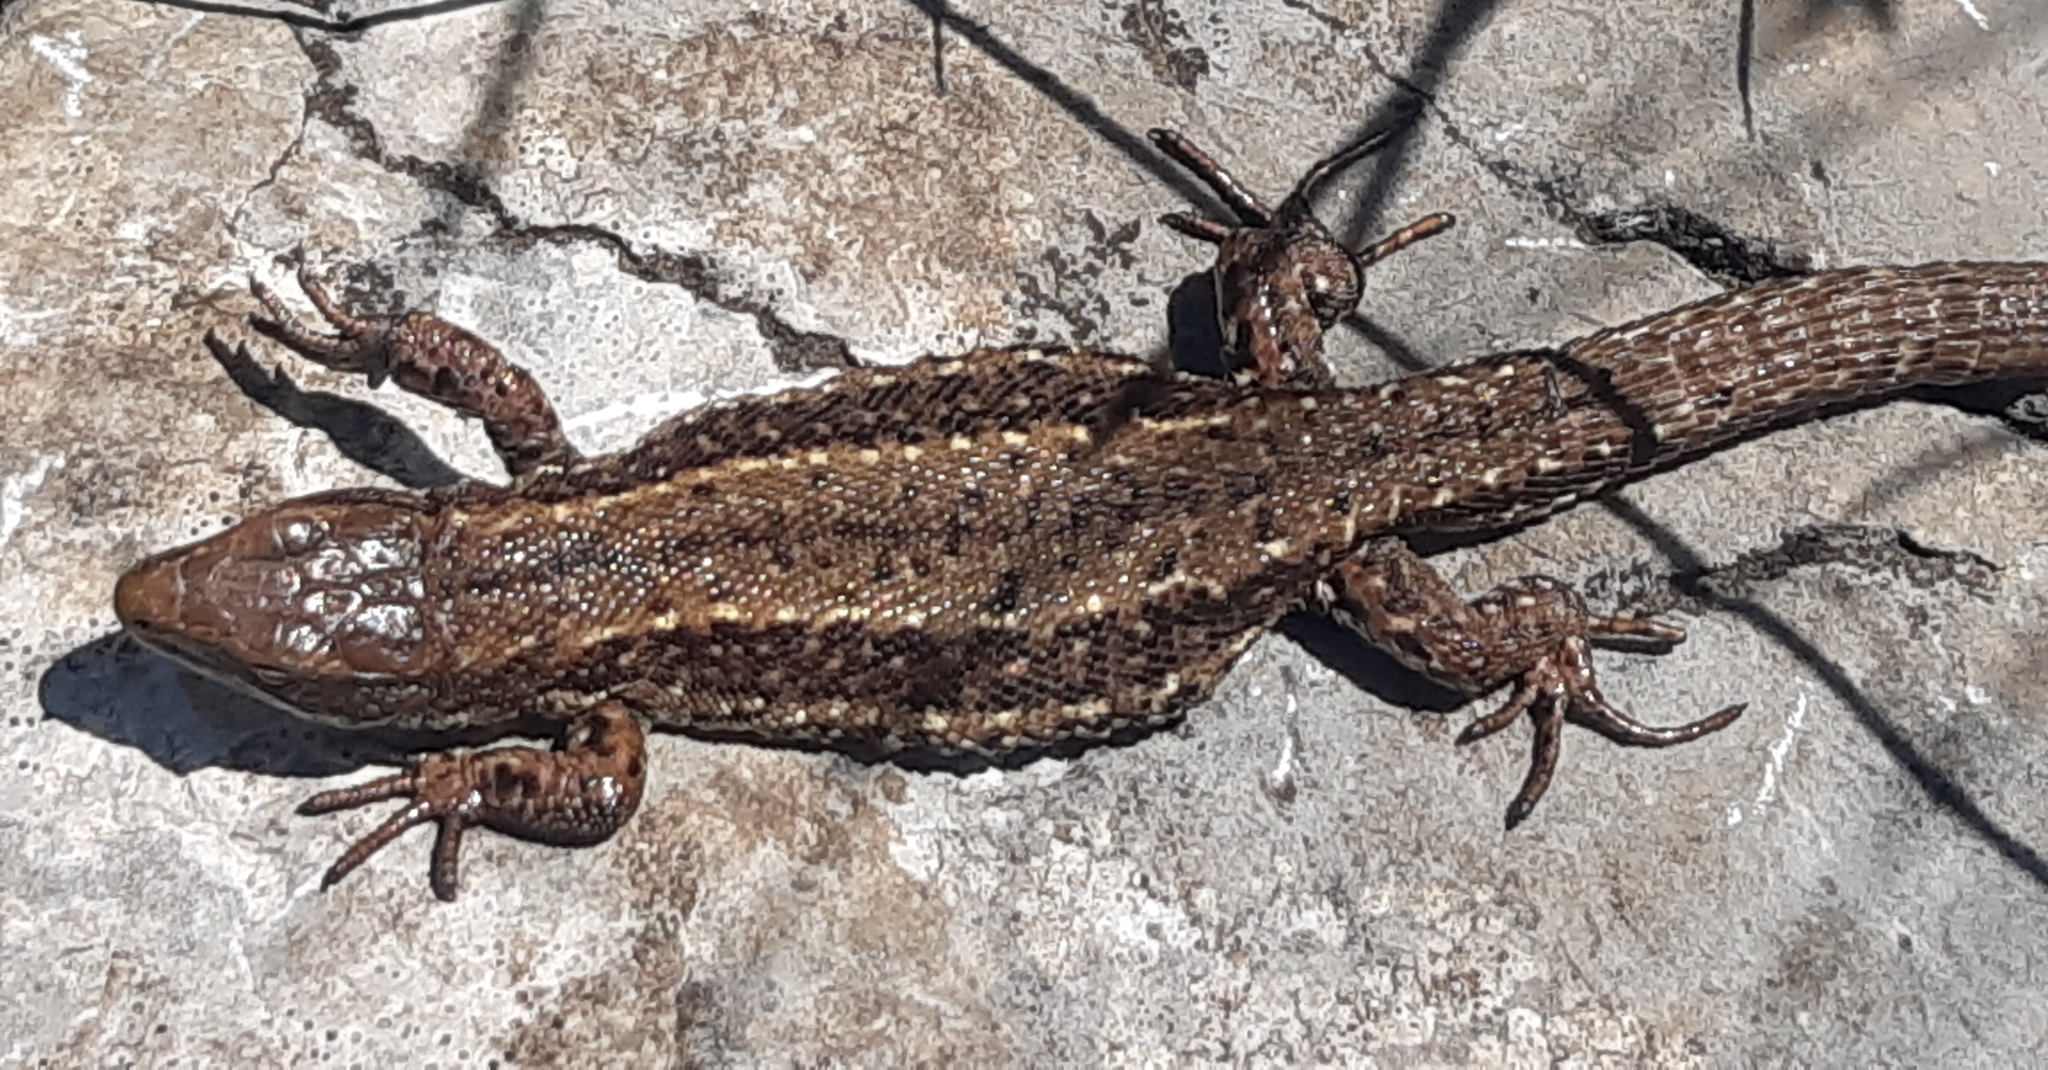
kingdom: Animalia
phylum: Chordata
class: Squamata
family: Lacertidae
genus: Zootoca
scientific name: Zootoca vivipara
